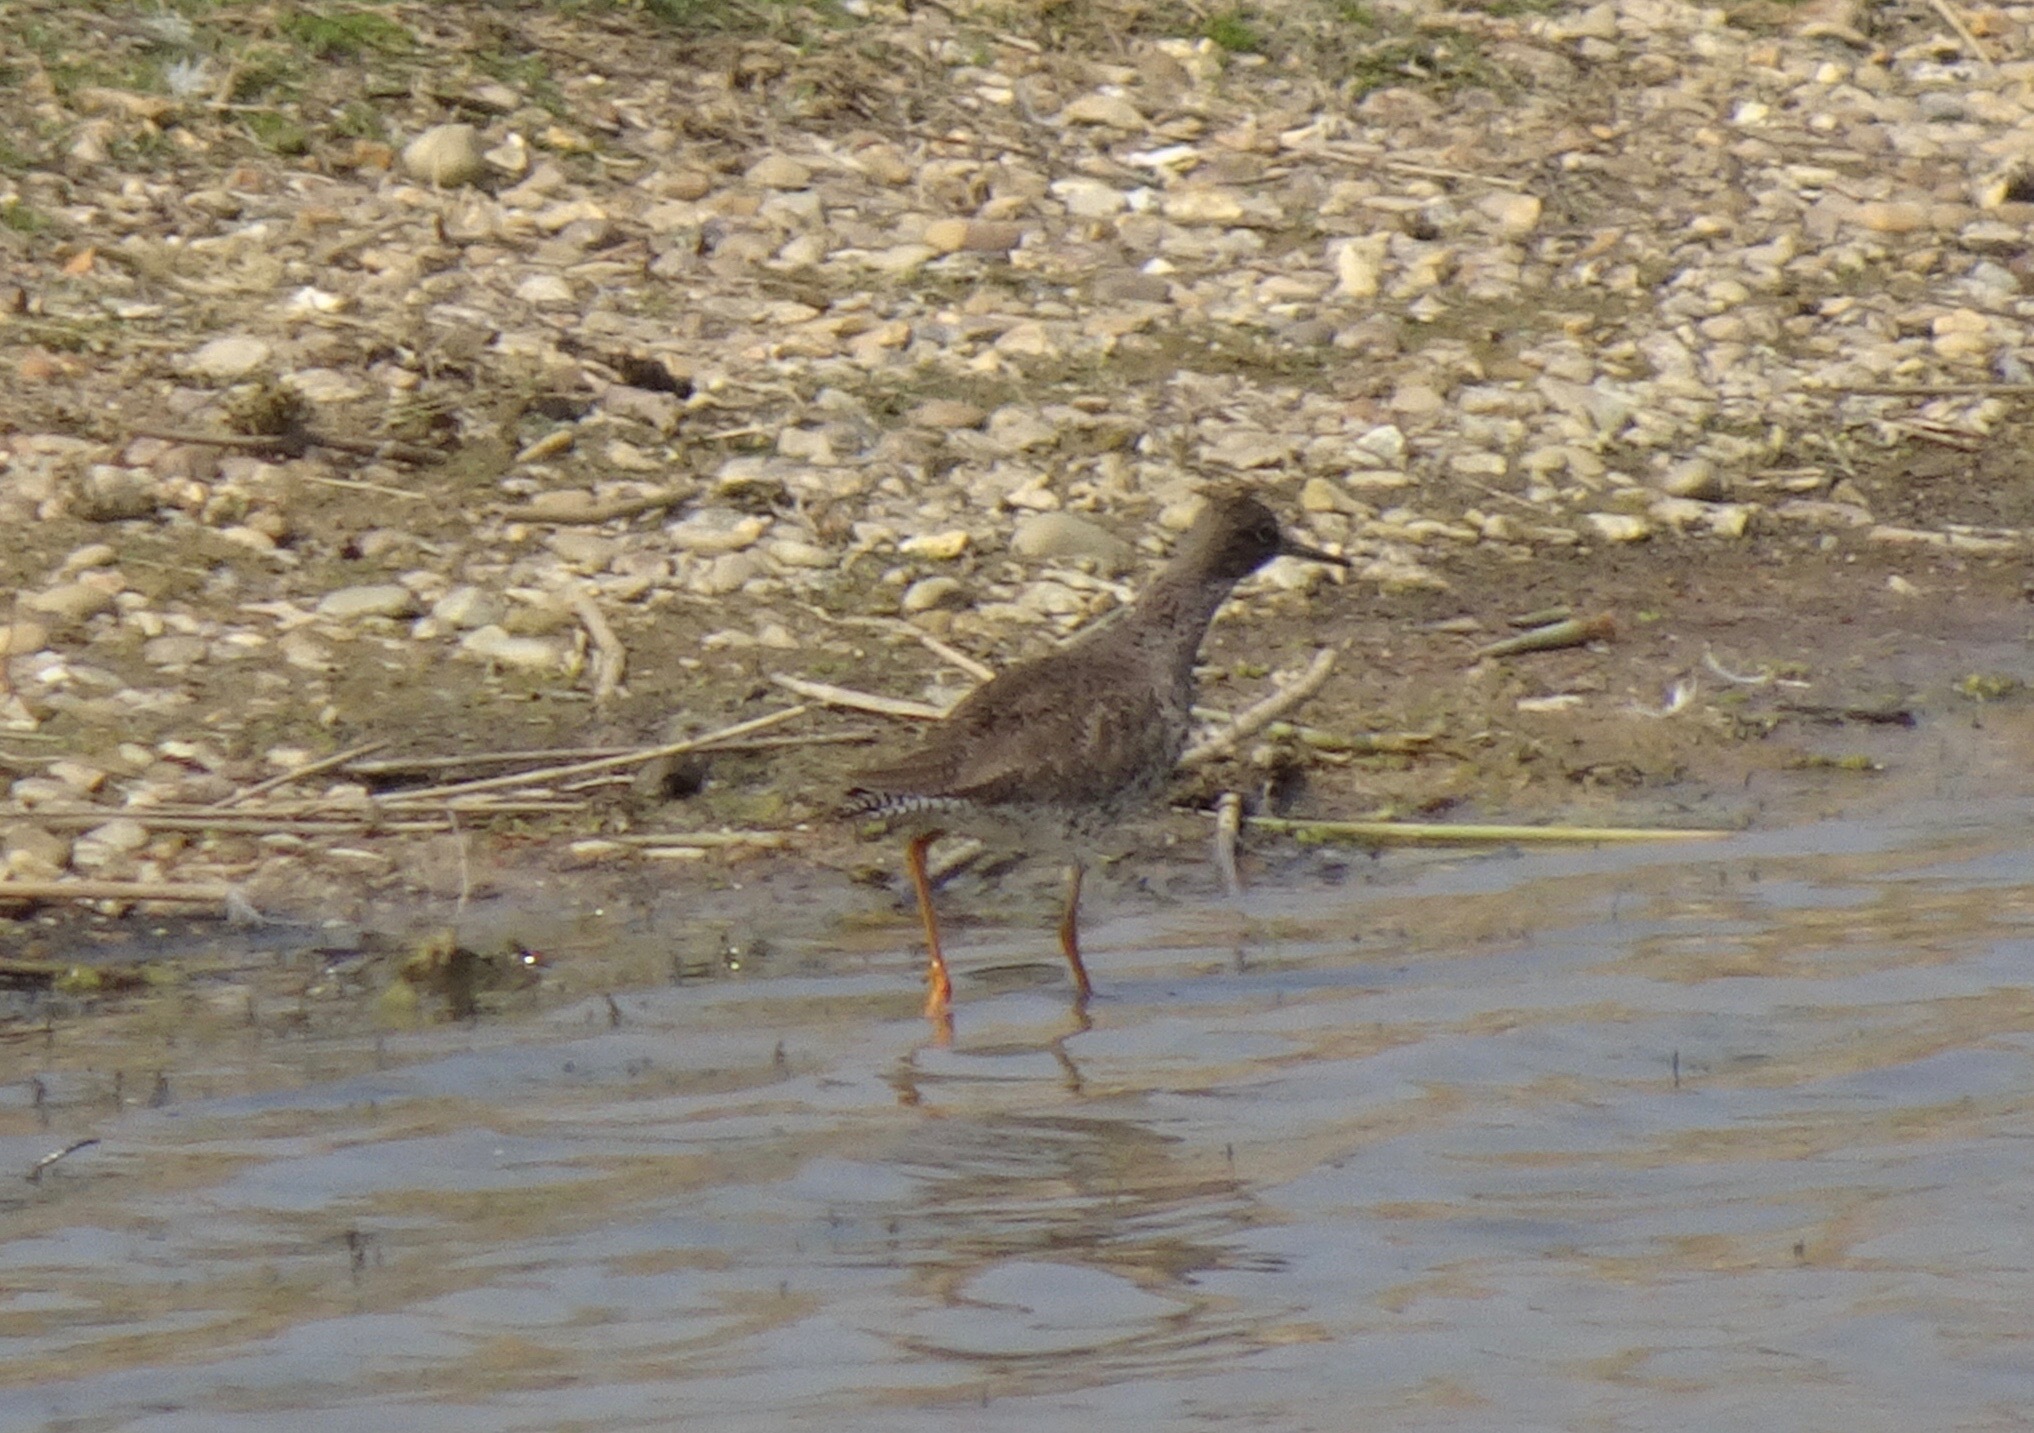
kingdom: Animalia
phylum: Chordata
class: Aves
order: Charadriiformes
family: Scolopacidae
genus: Tringa
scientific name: Tringa totanus
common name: Common redshank
